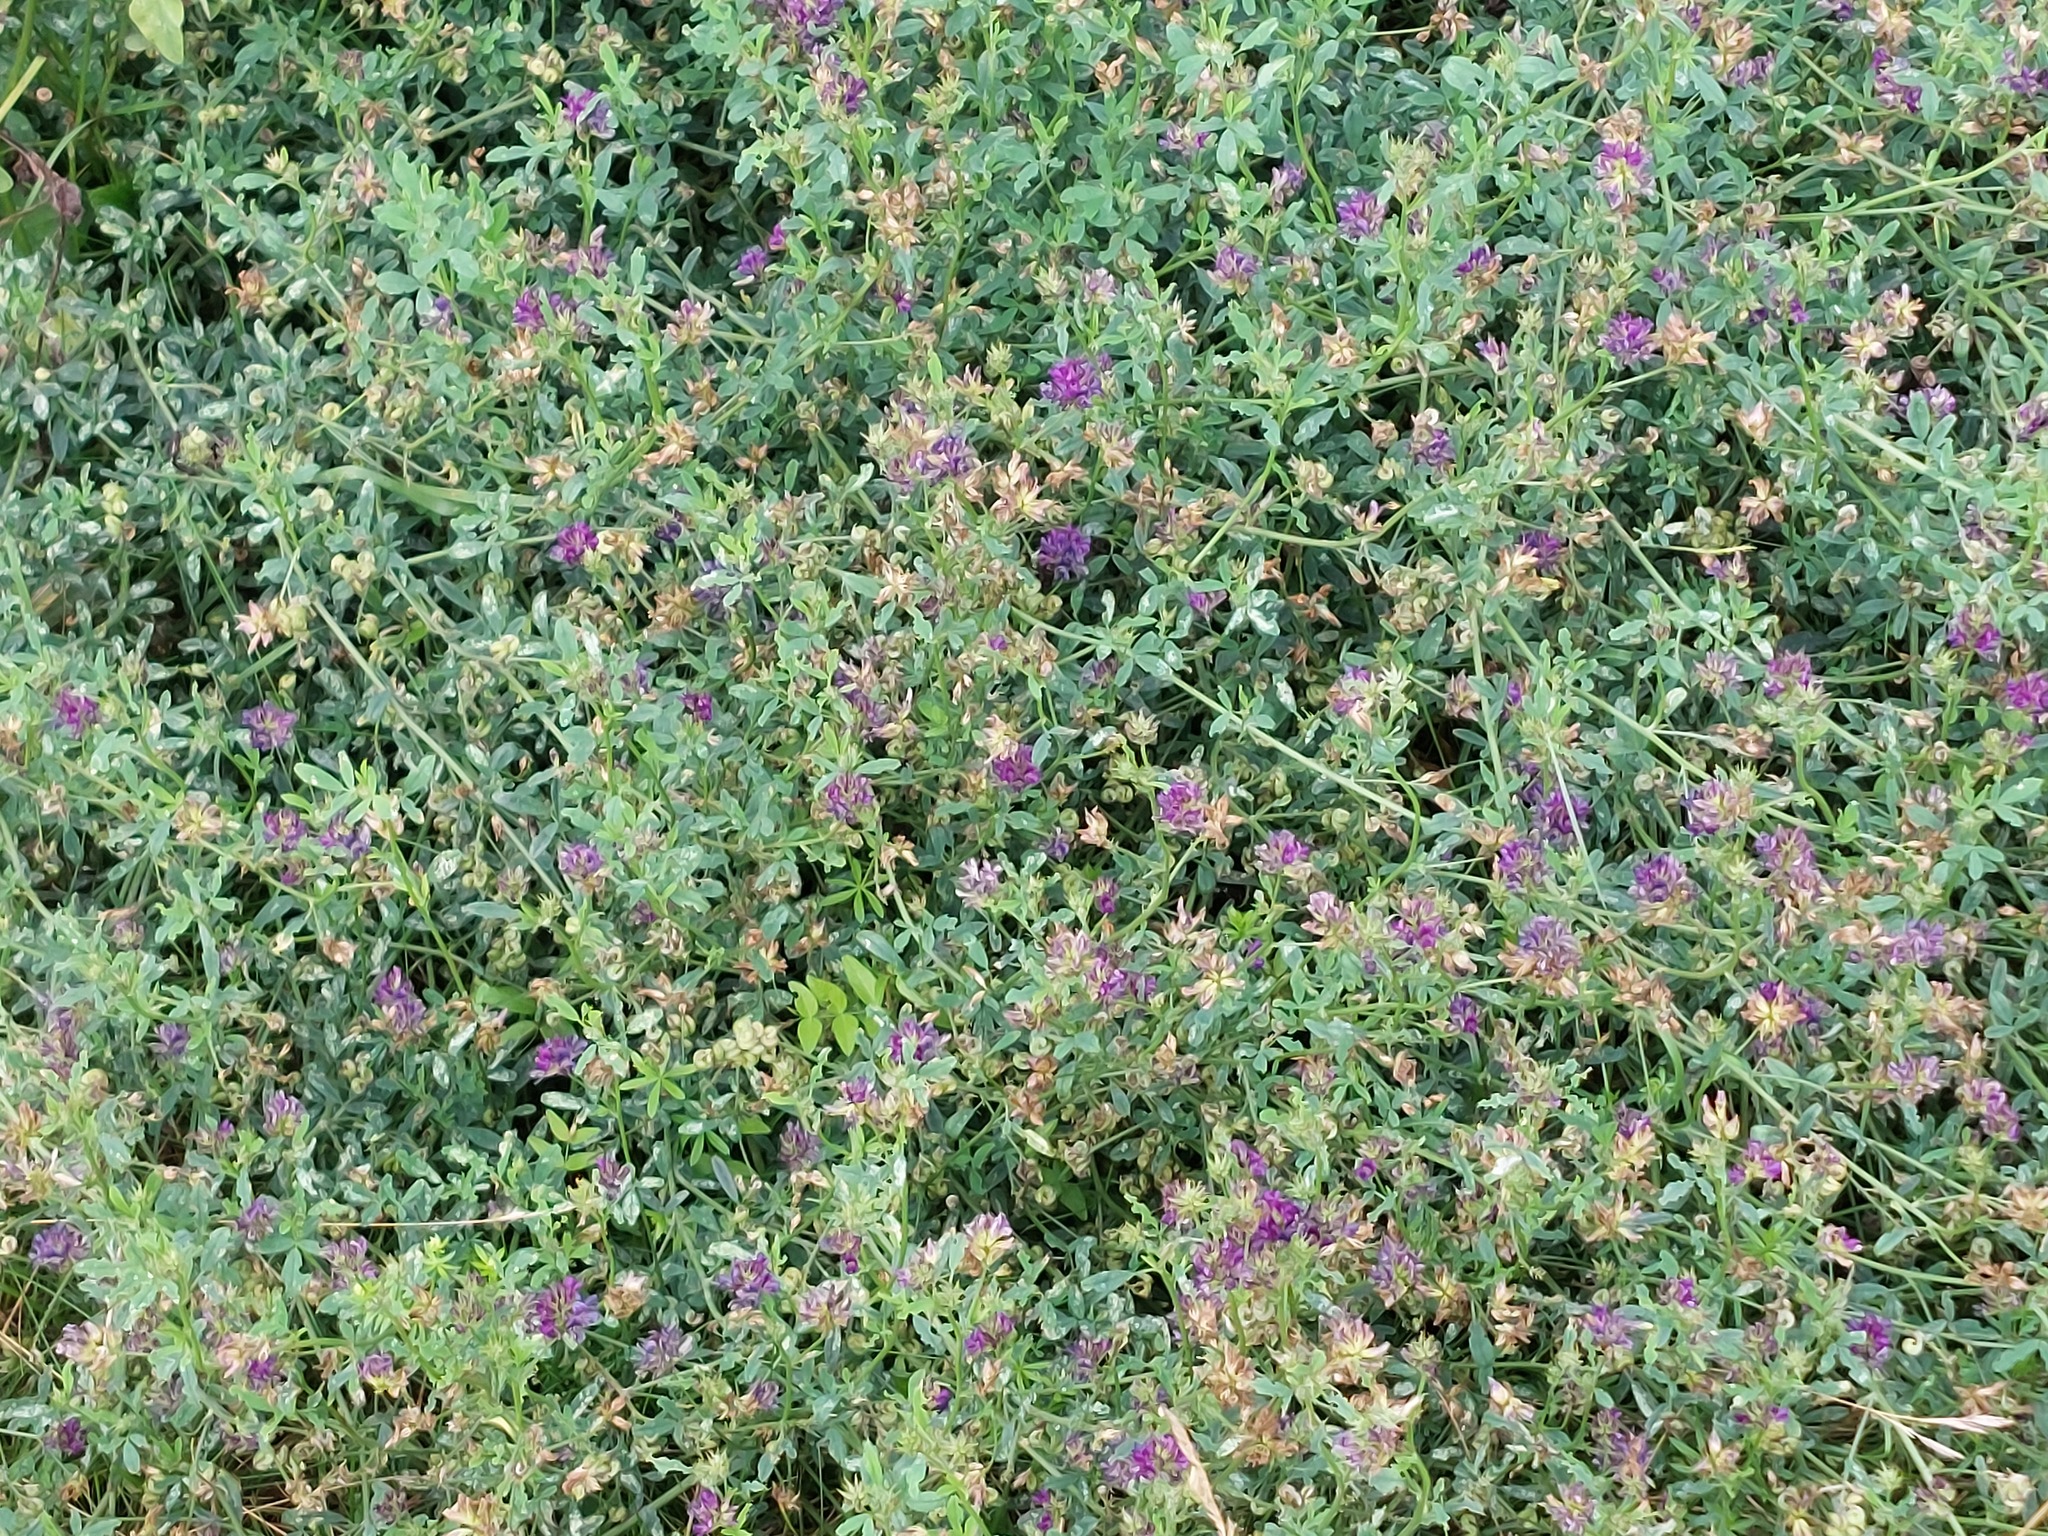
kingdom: Plantae
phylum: Tracheophyta
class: Magnoliopsida
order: Fabales
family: Fabaceae
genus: Medicago
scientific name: Medicago sativa
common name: Alfalfa
